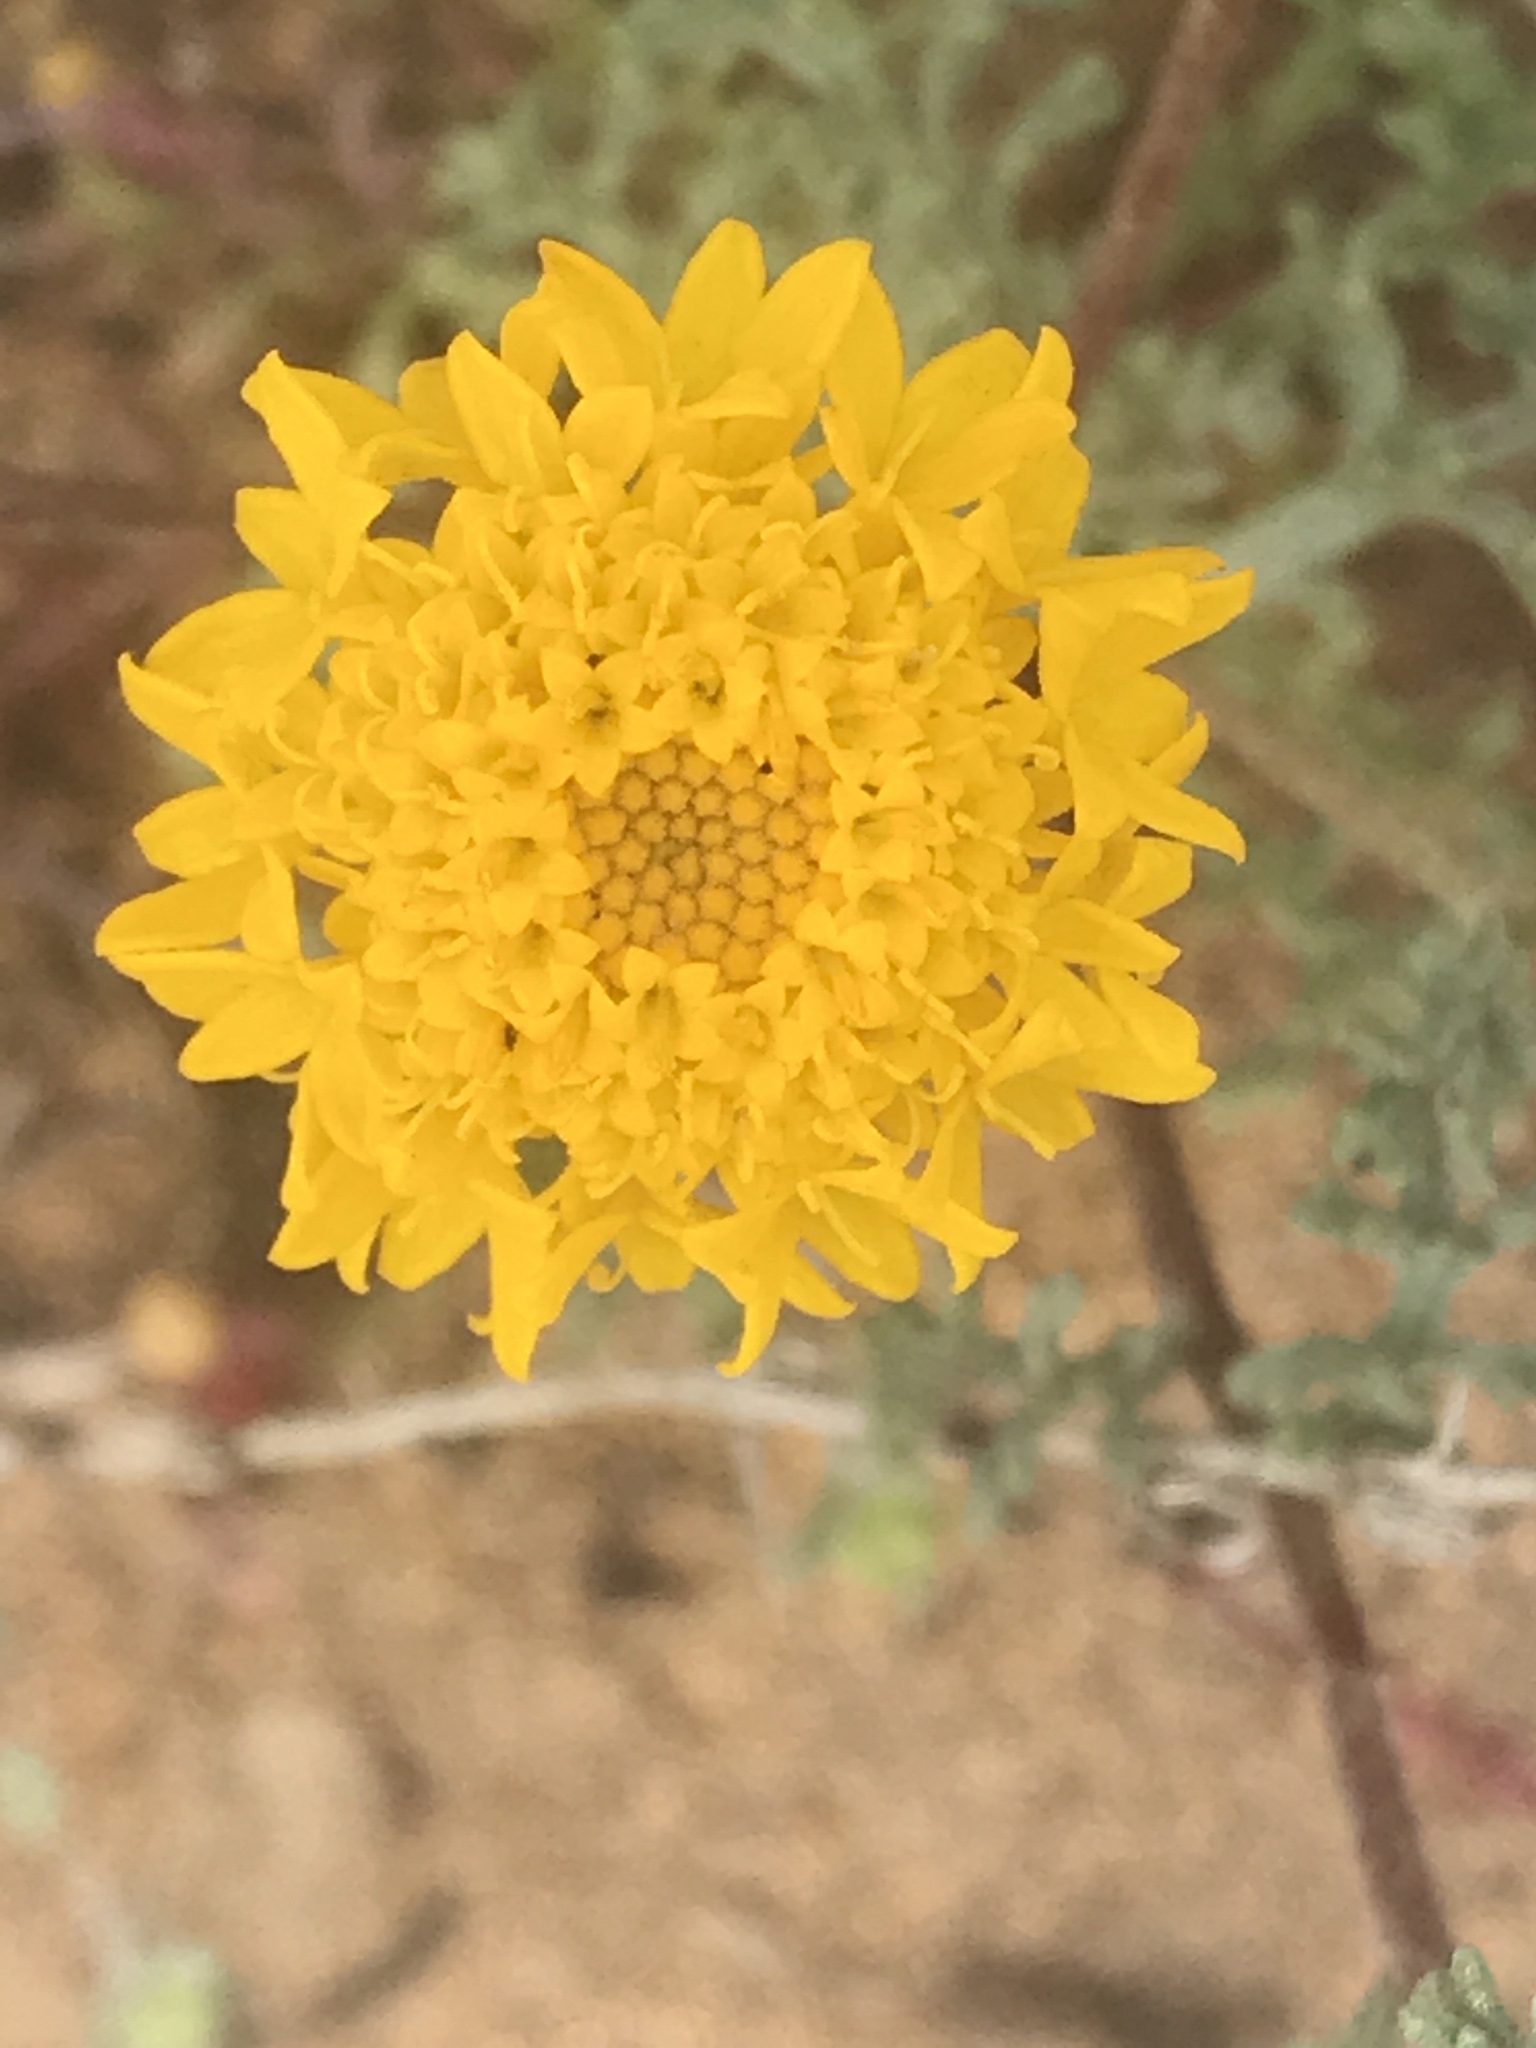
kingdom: Plantae
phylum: Tracheophyta
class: Magnoliopsida
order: Asterales
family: Asteraceae
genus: Chaenactis
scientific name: Chaenactis glabriuscula
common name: Yellow pincushion
